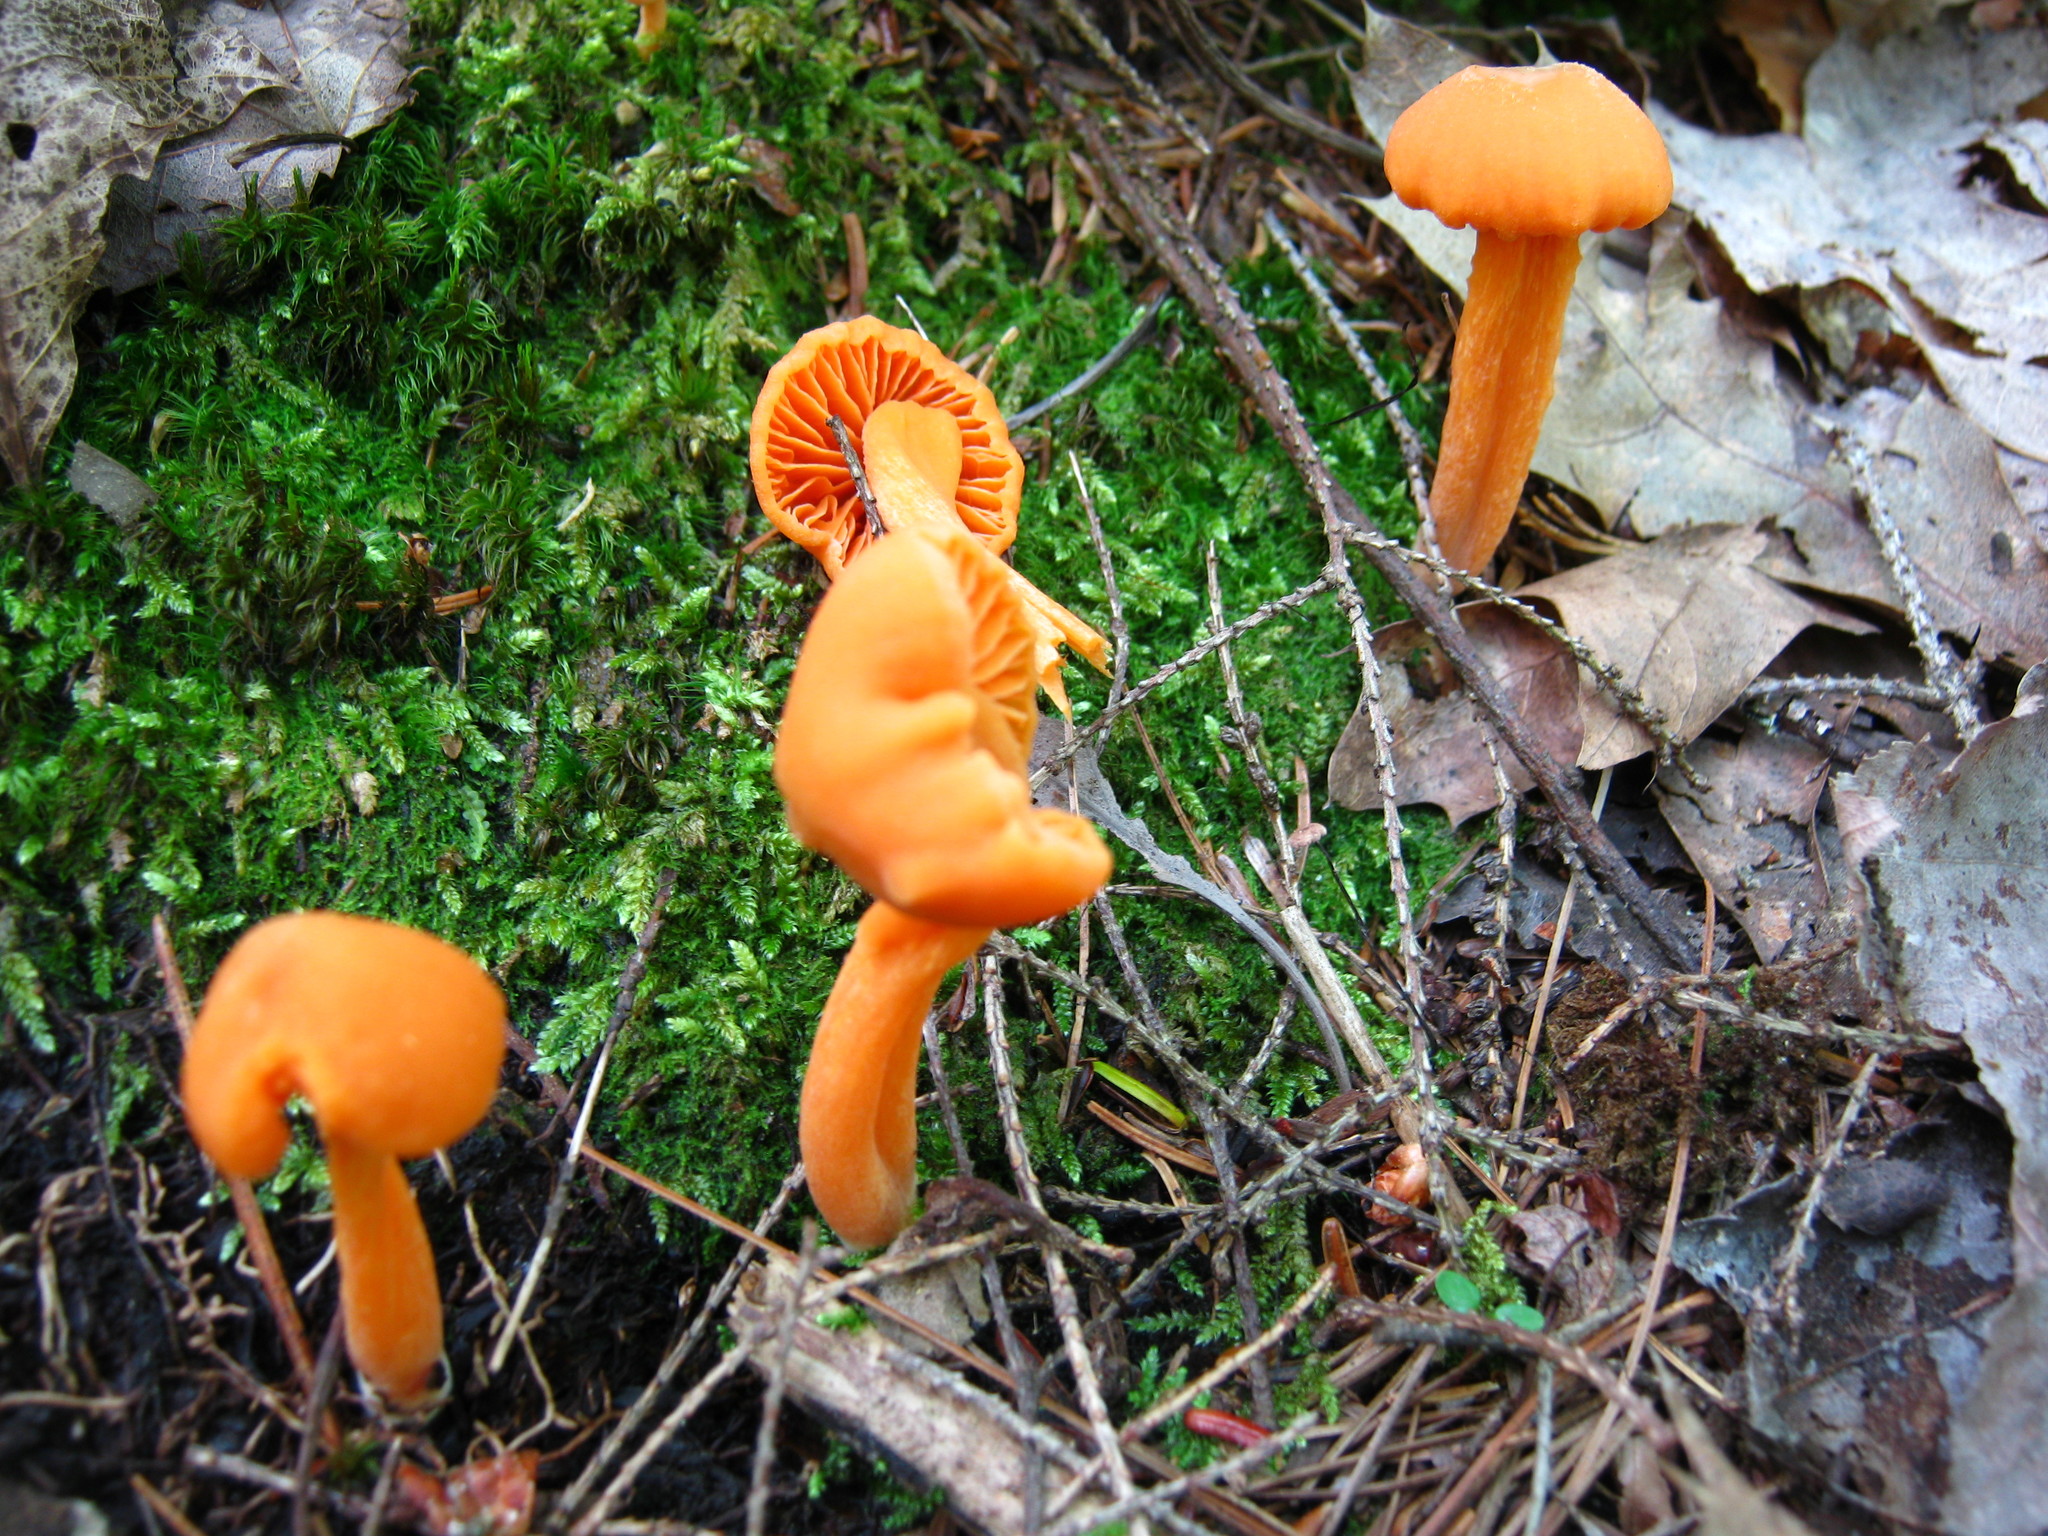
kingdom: Fungi
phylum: Basidiomycota
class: Agaricomycetes
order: Agaricales
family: Entolomataceae
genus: Entoloma
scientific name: Entoloma quadratum
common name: Salmon pinkgill
